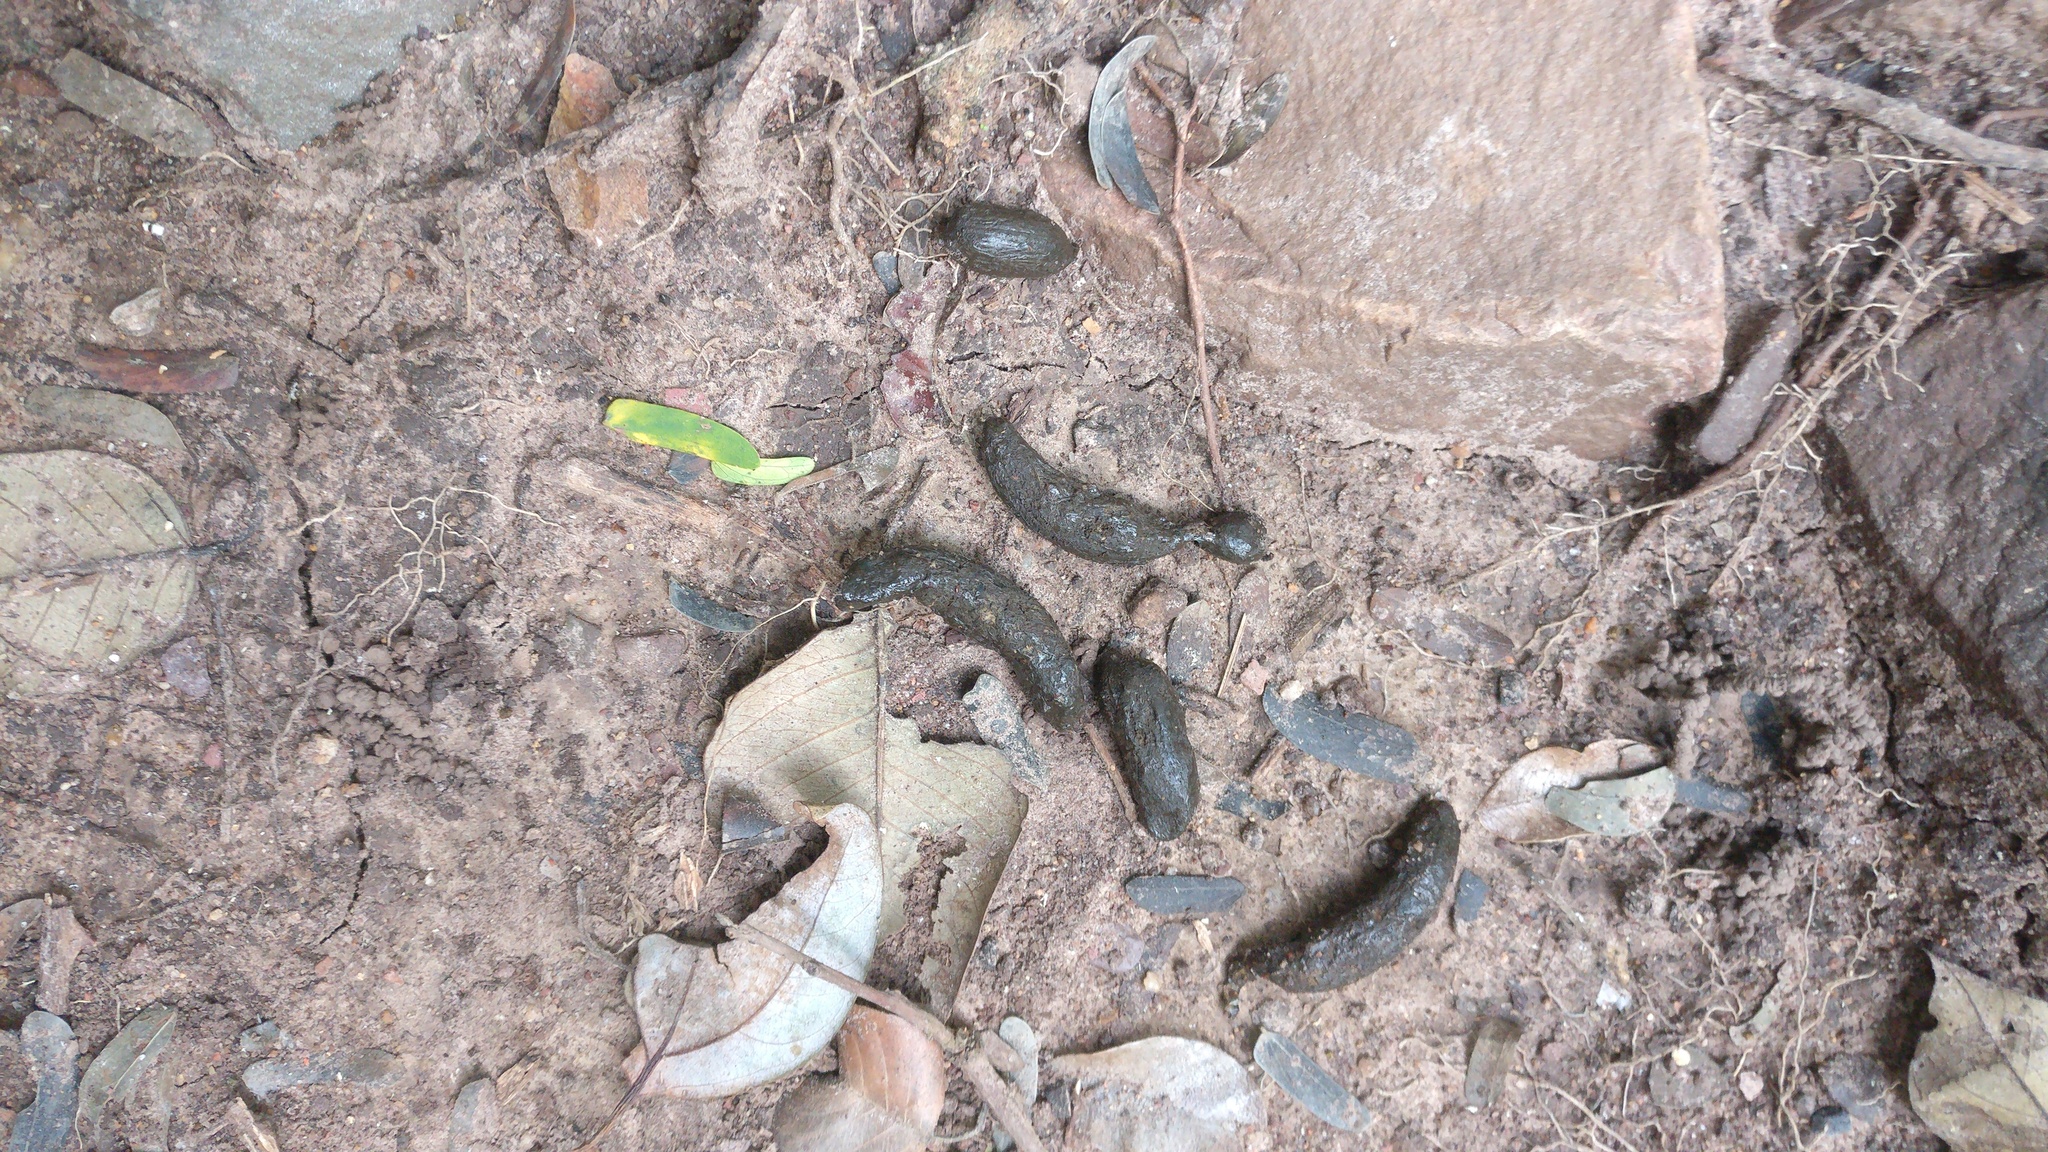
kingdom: Animalia
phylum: Chordata
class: Mammalia
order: Rodentia
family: Hystricidae
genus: Hystrix
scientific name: Hystrix indica
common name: Indian crested porcupine
